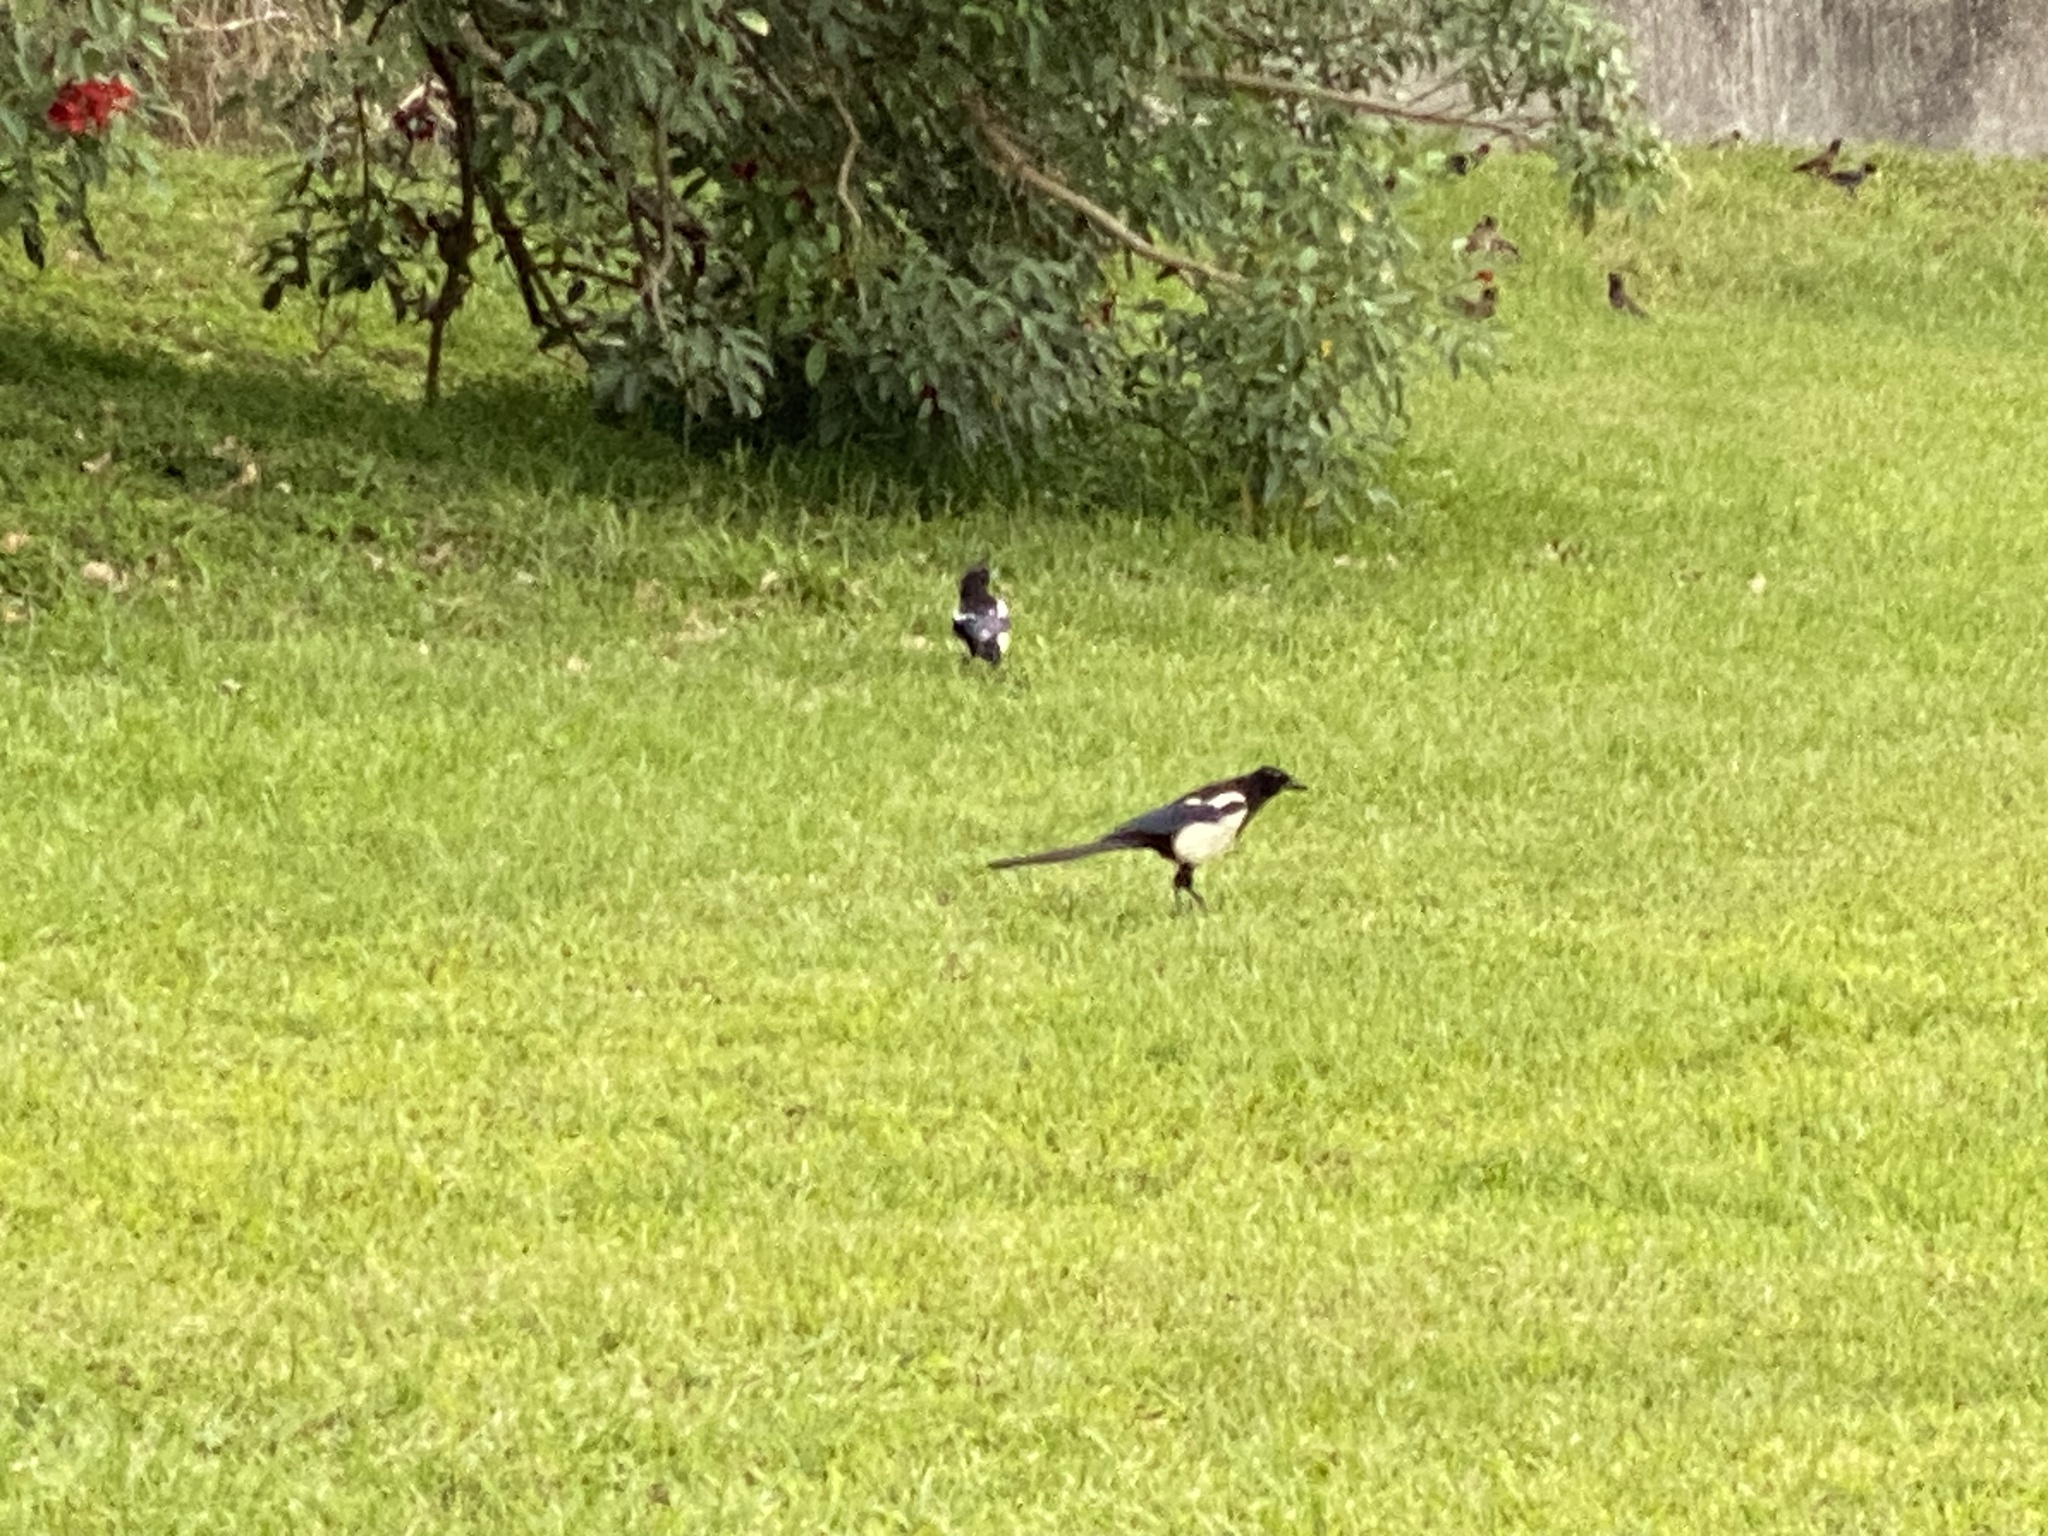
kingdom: Animalia
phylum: Chordata
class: Aves
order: Passeriformes
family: Corvidae
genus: Pica
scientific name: Pica serica
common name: Oriental magpie
